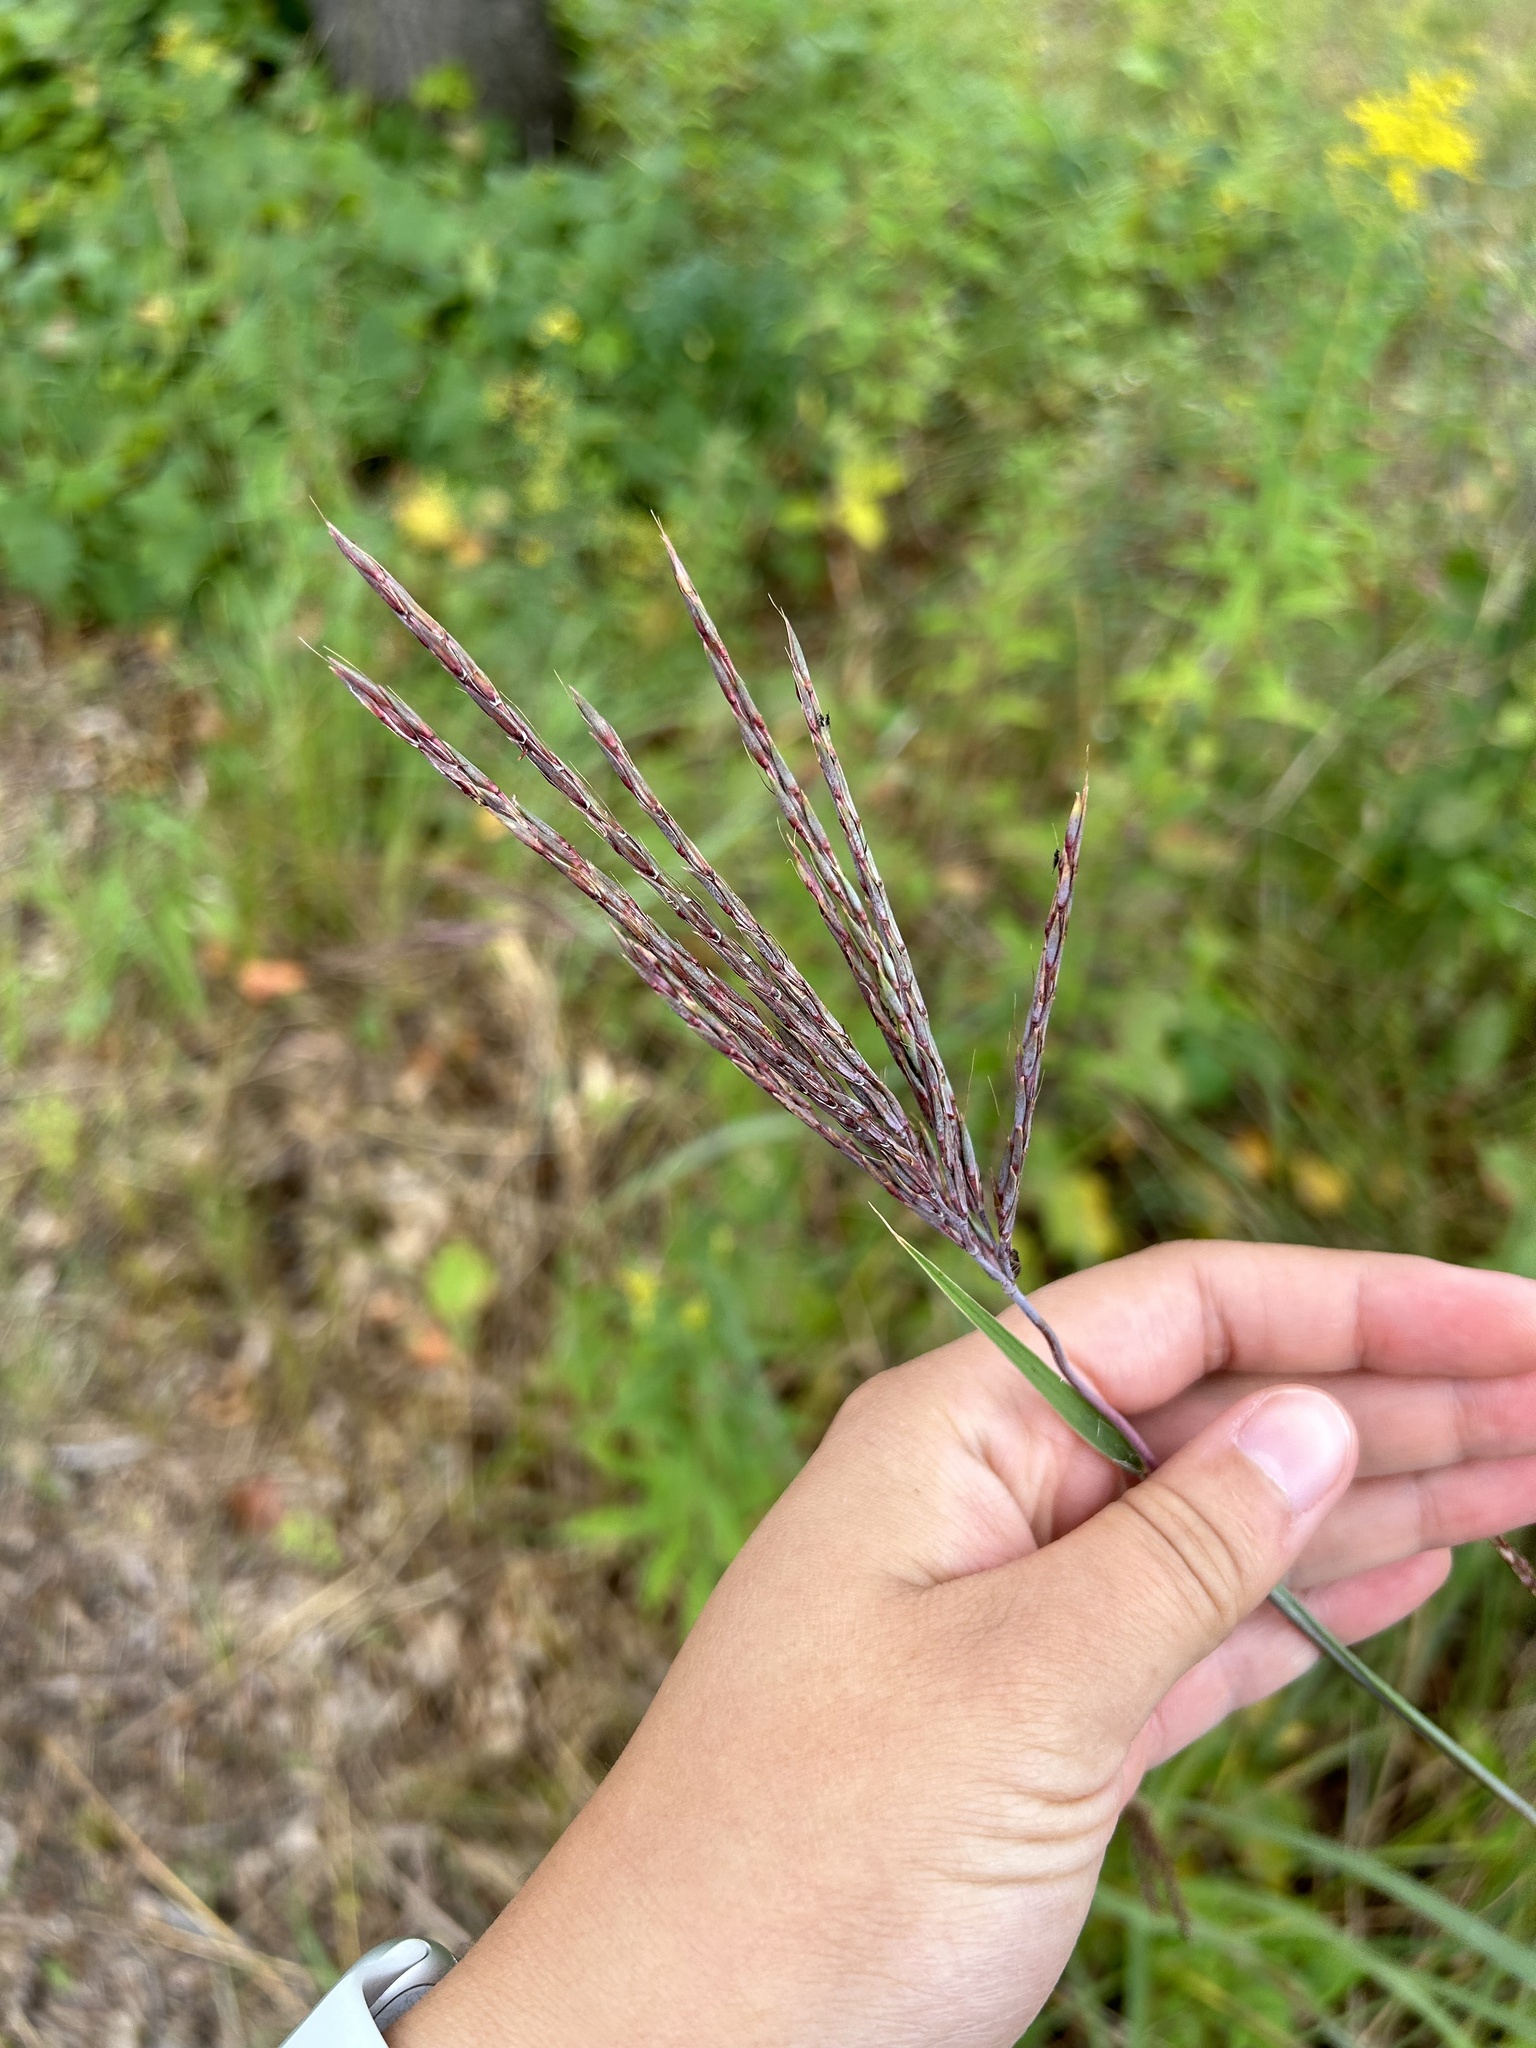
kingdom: Plantae
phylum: Tracheophyta
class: Liliopsida
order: Poales
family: Poaceae
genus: Andropogon
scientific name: Andropogon gerardi
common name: Big bluestem
